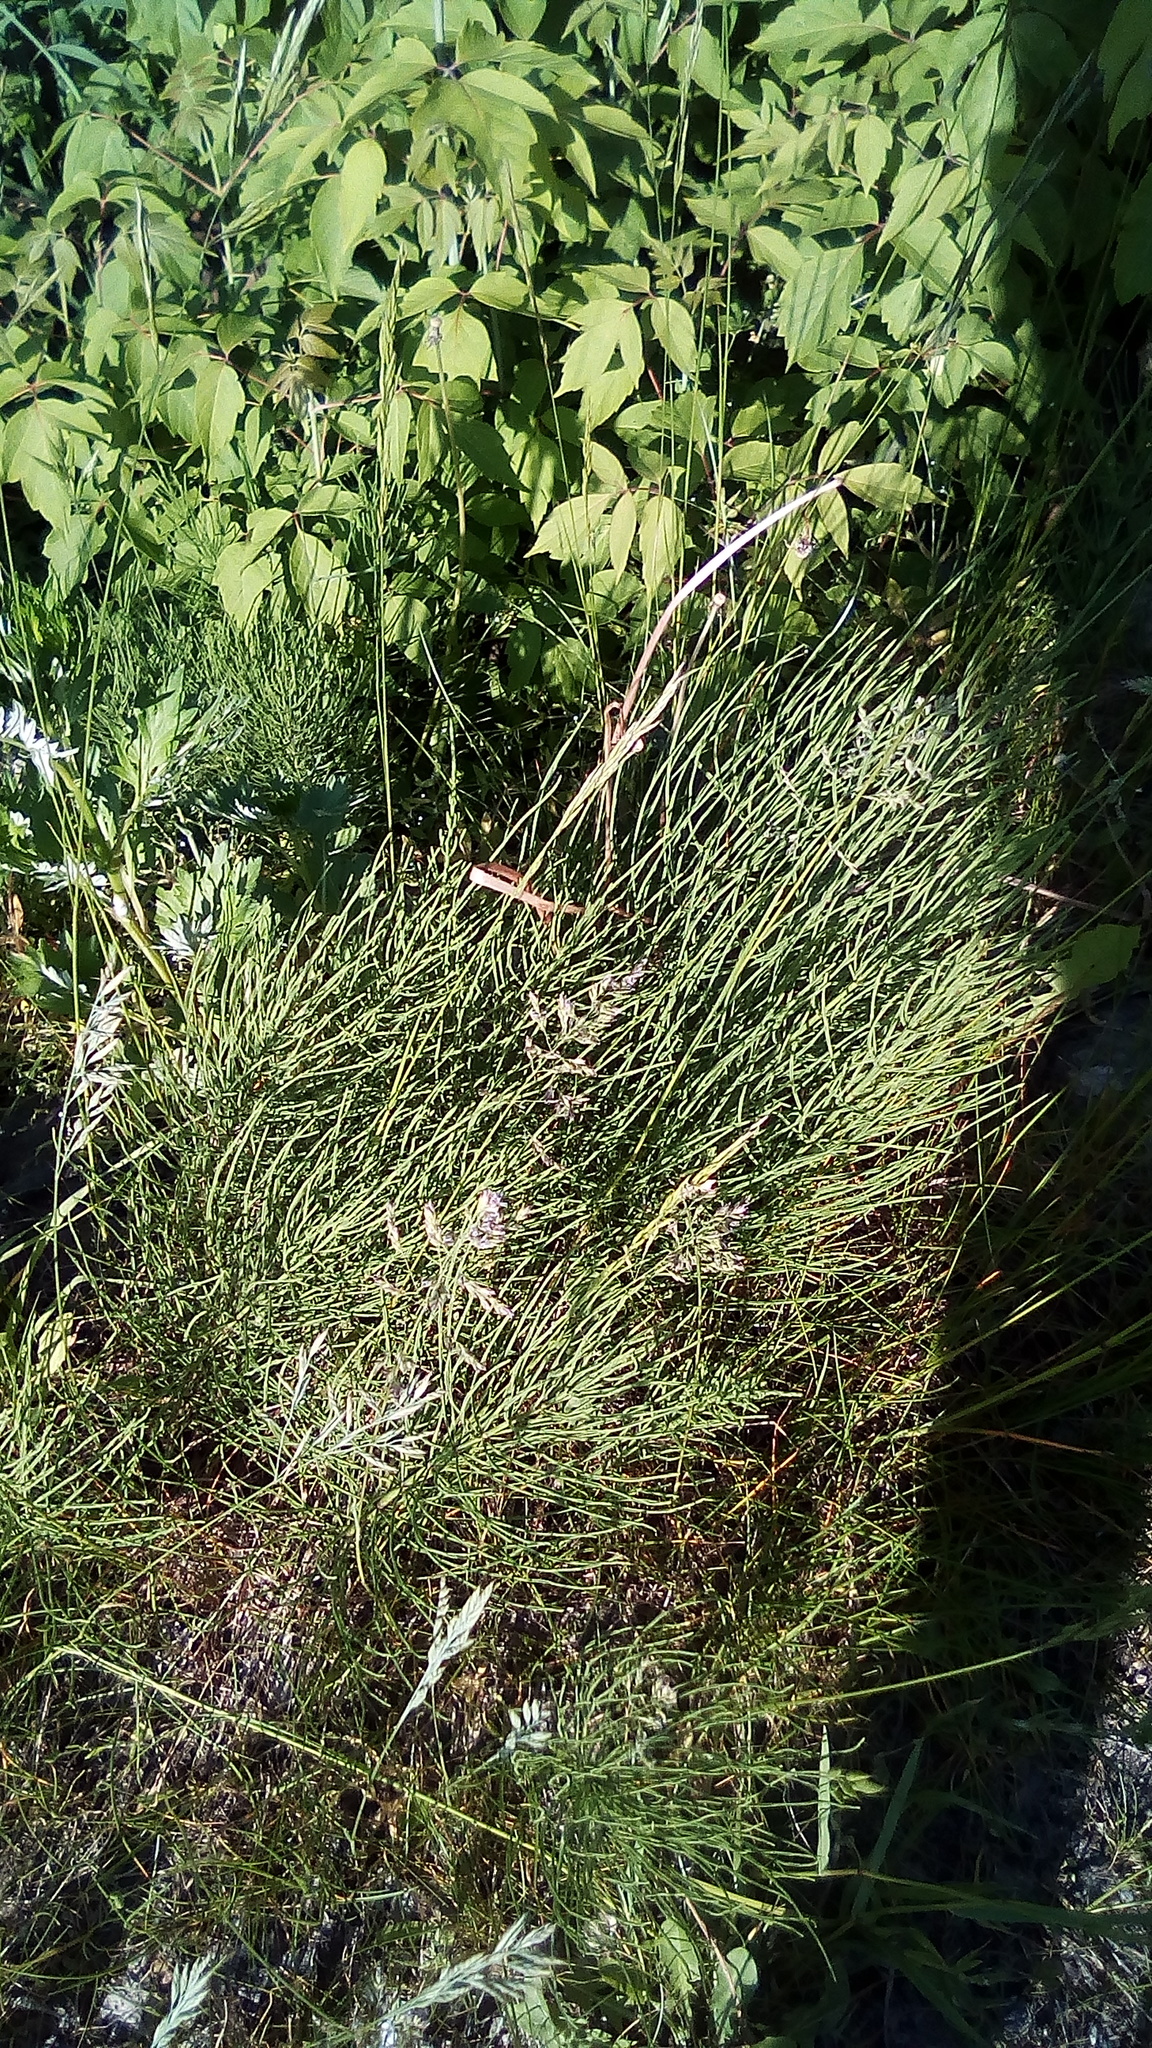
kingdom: Plantae
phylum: Tracheophyta
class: Polypodiopsida
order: Equisetales
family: Equisetaceae
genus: Equisetum
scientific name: Equisetum arvense
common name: Field horsetail
